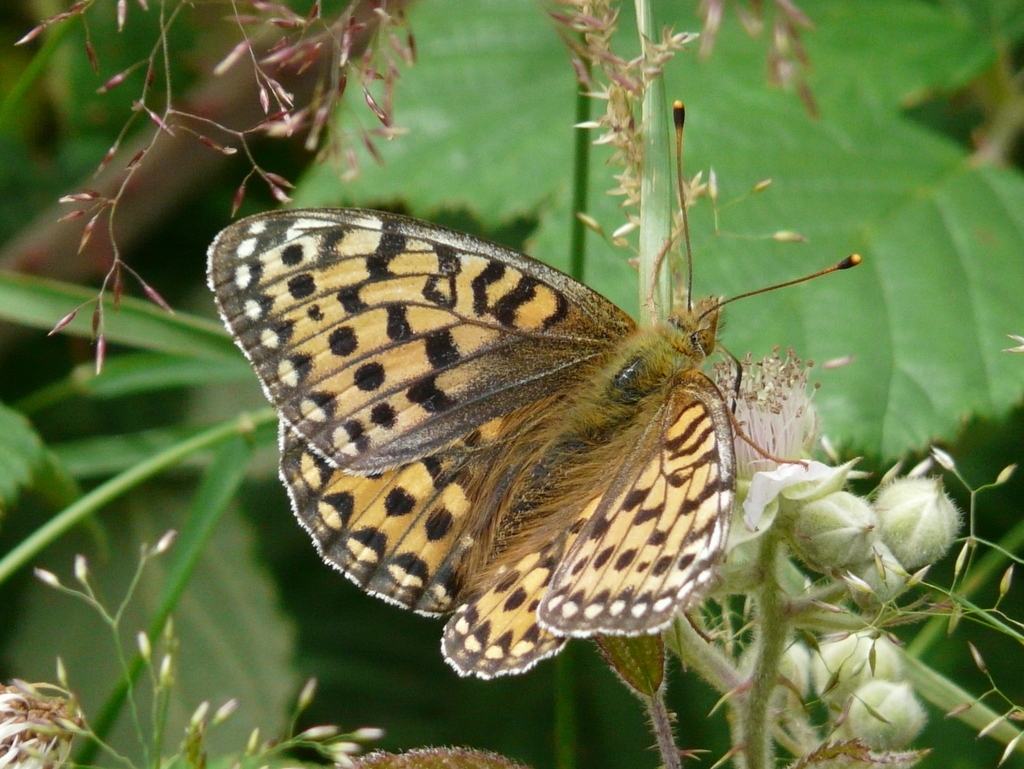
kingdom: Animalia
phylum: Arthropoda
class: Insecta
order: Lepidoptera
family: Nymphalidae
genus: Speyeria
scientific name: Speyeria aglaja
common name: Dark green fritillary
